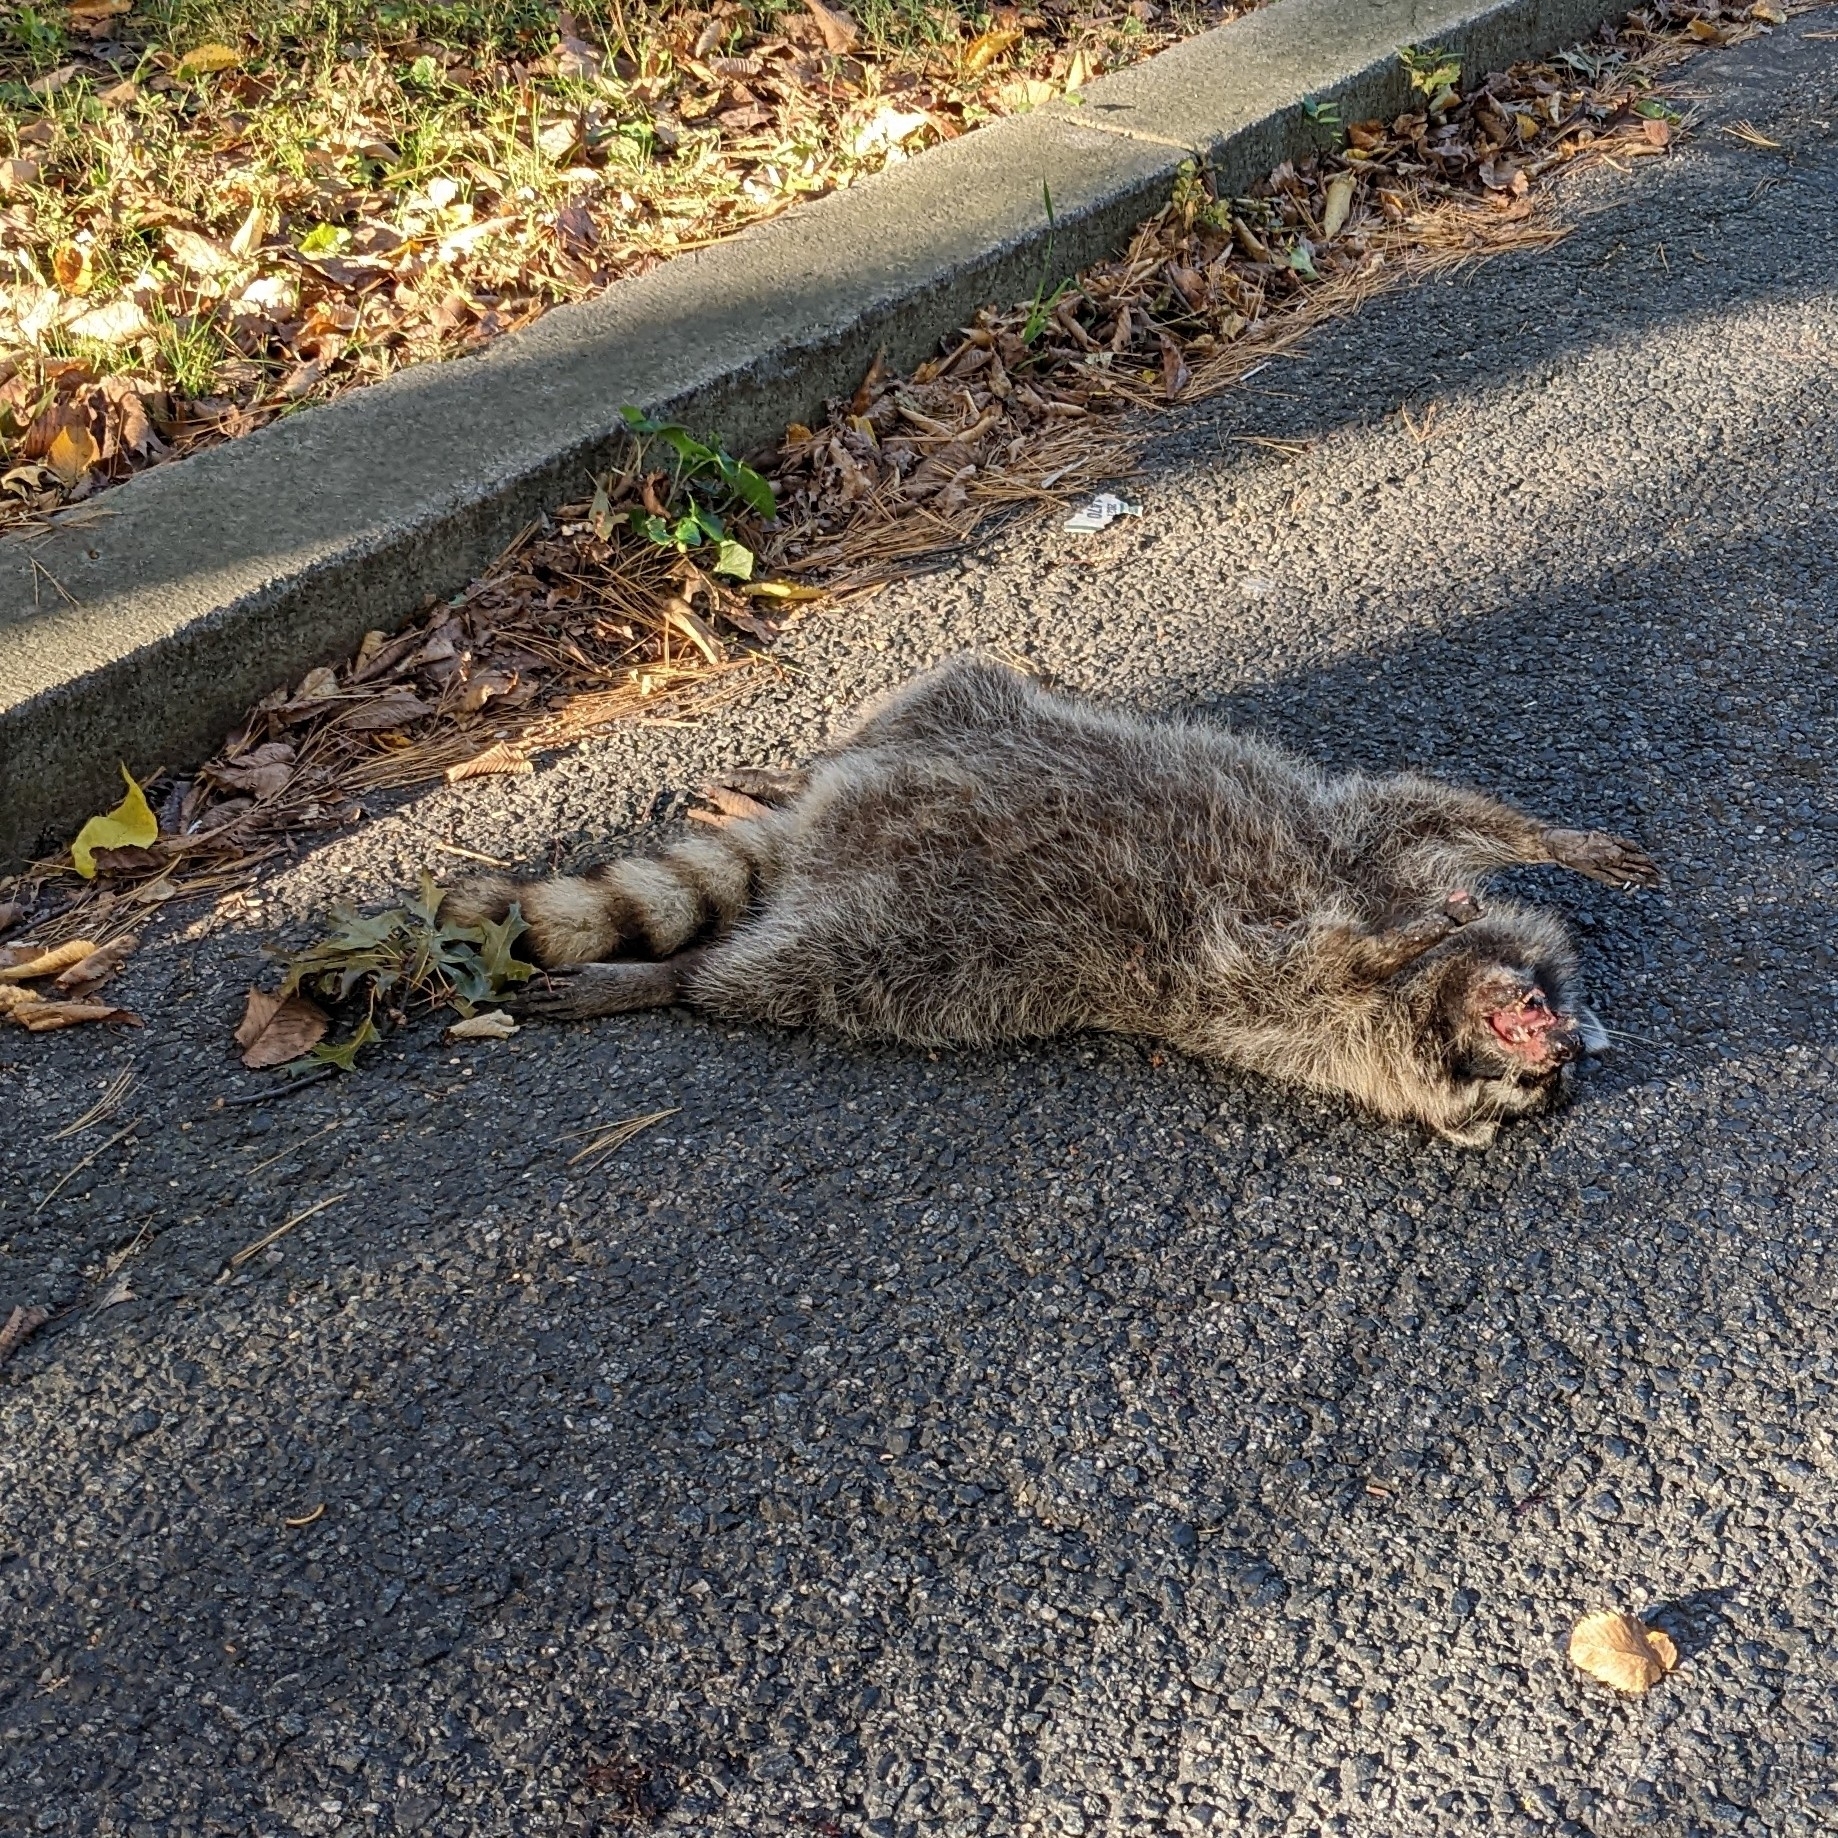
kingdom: Animalia
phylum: Chordata
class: Mammalia
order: Carnivora
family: Procyonidae
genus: Procyon
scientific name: Procyon lotor
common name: Raccoon
